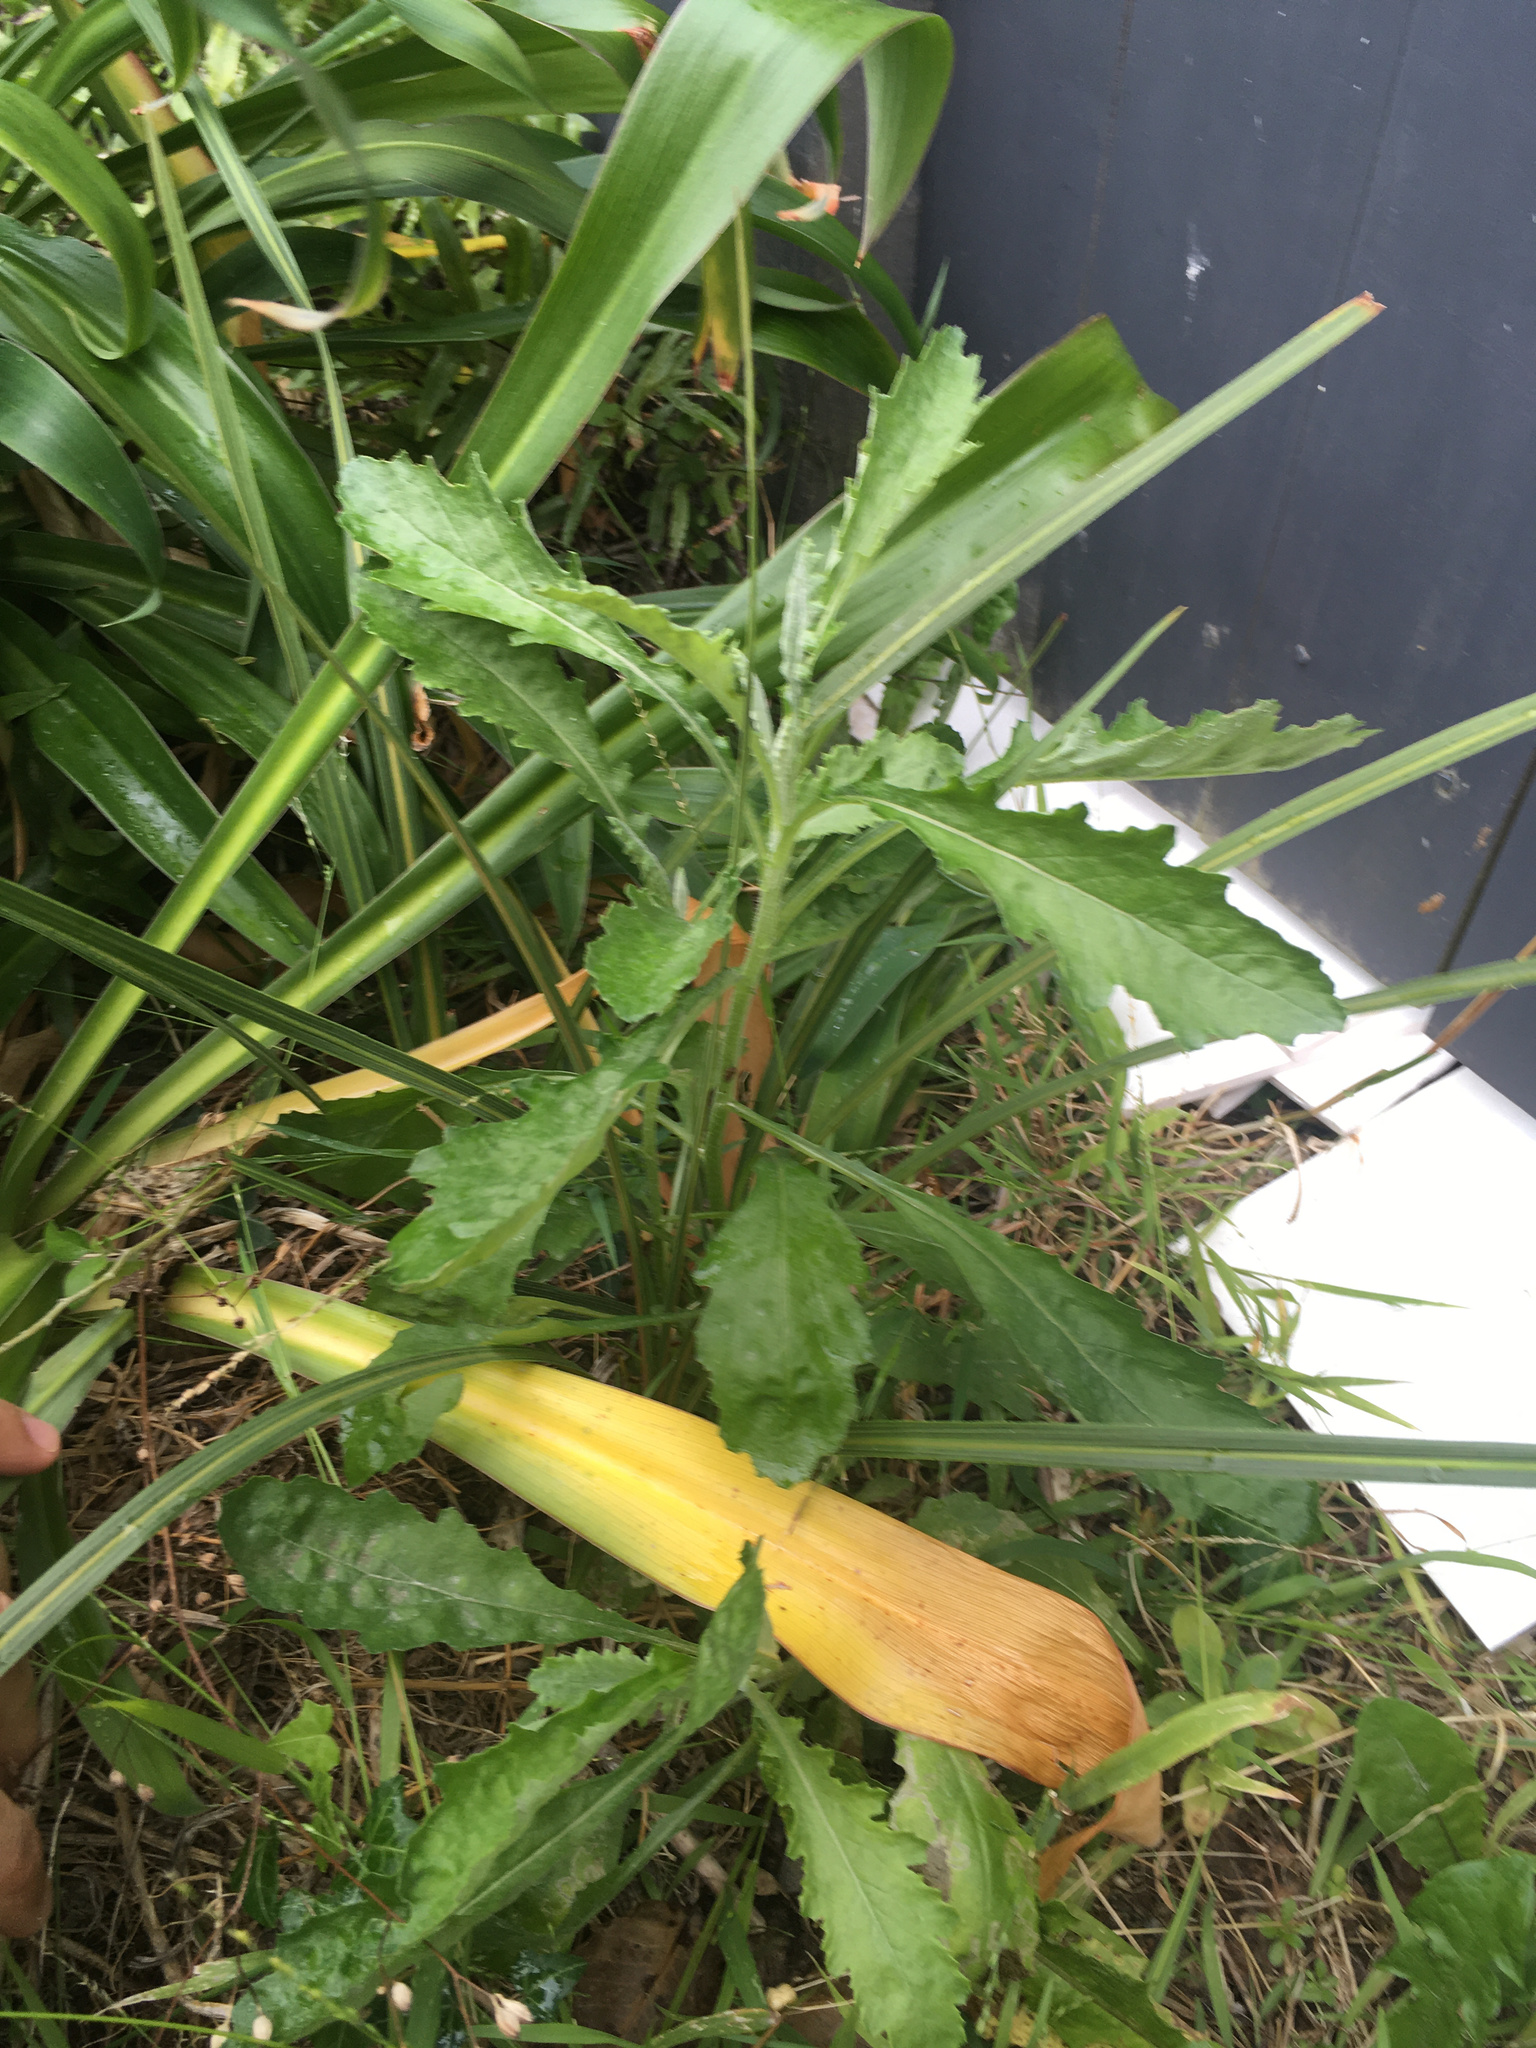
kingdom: Plantae
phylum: Tracheophyta
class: Magnoliopsida
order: Asterales
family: Asteraceae
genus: Senecio
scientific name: Senecio glomeratus
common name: Cutleaf burnweed
